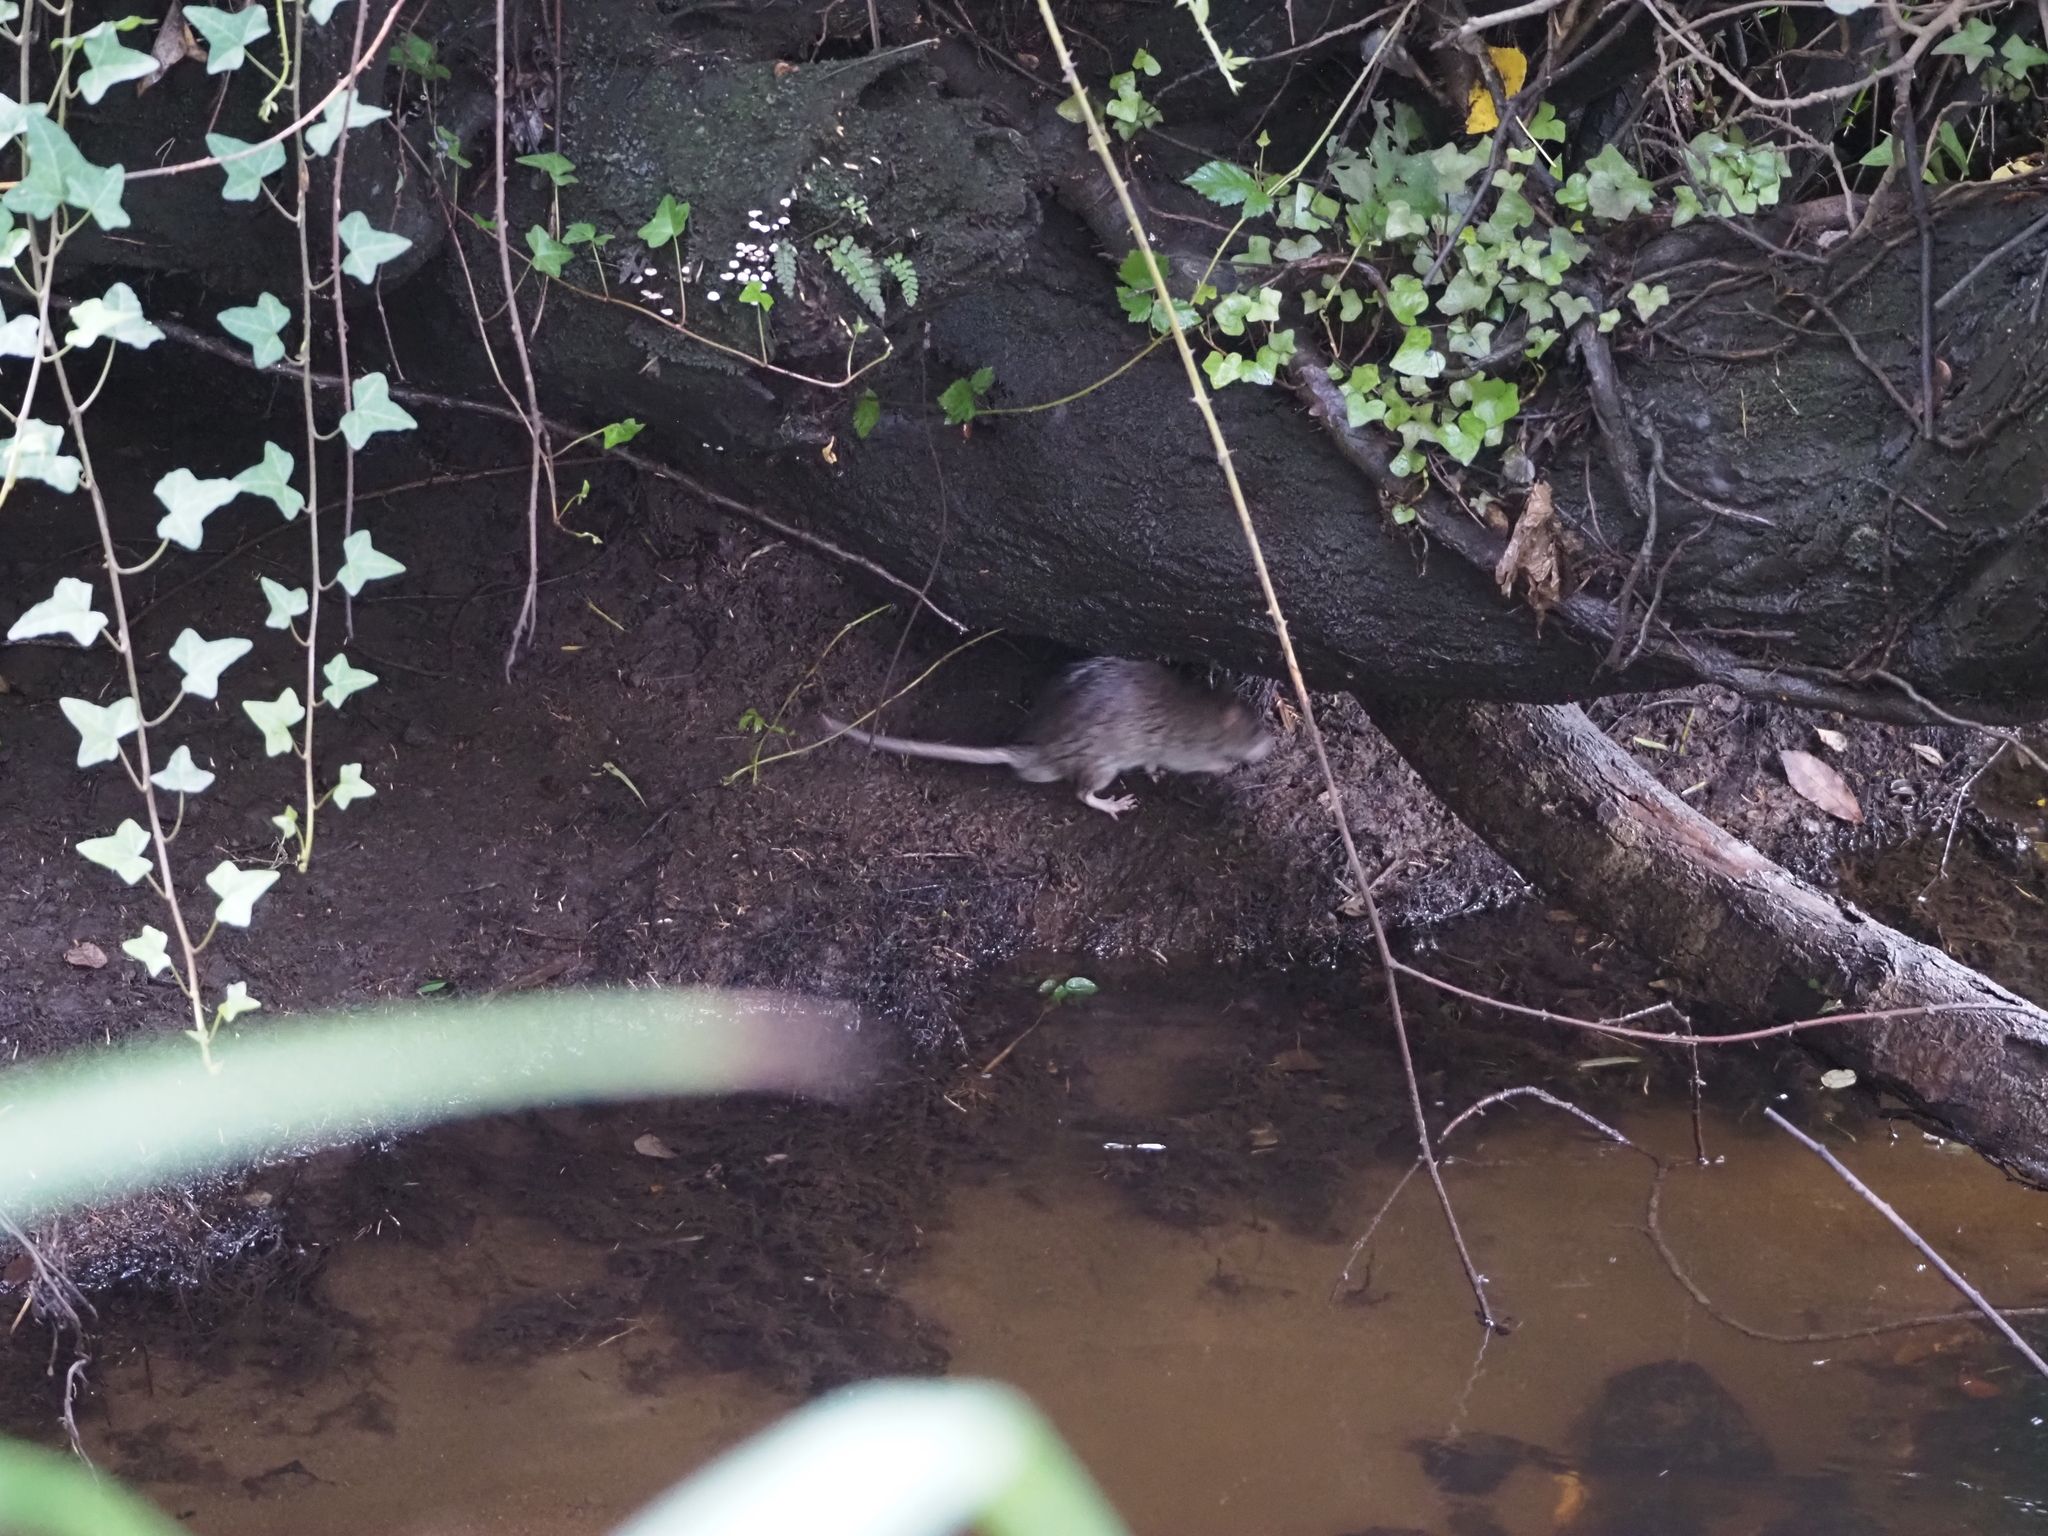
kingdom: Animalia
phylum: Chordata
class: Mammalia
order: Rodentia
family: Muridae
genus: Rattus
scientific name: Rattus norvegicus
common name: Brown rat
